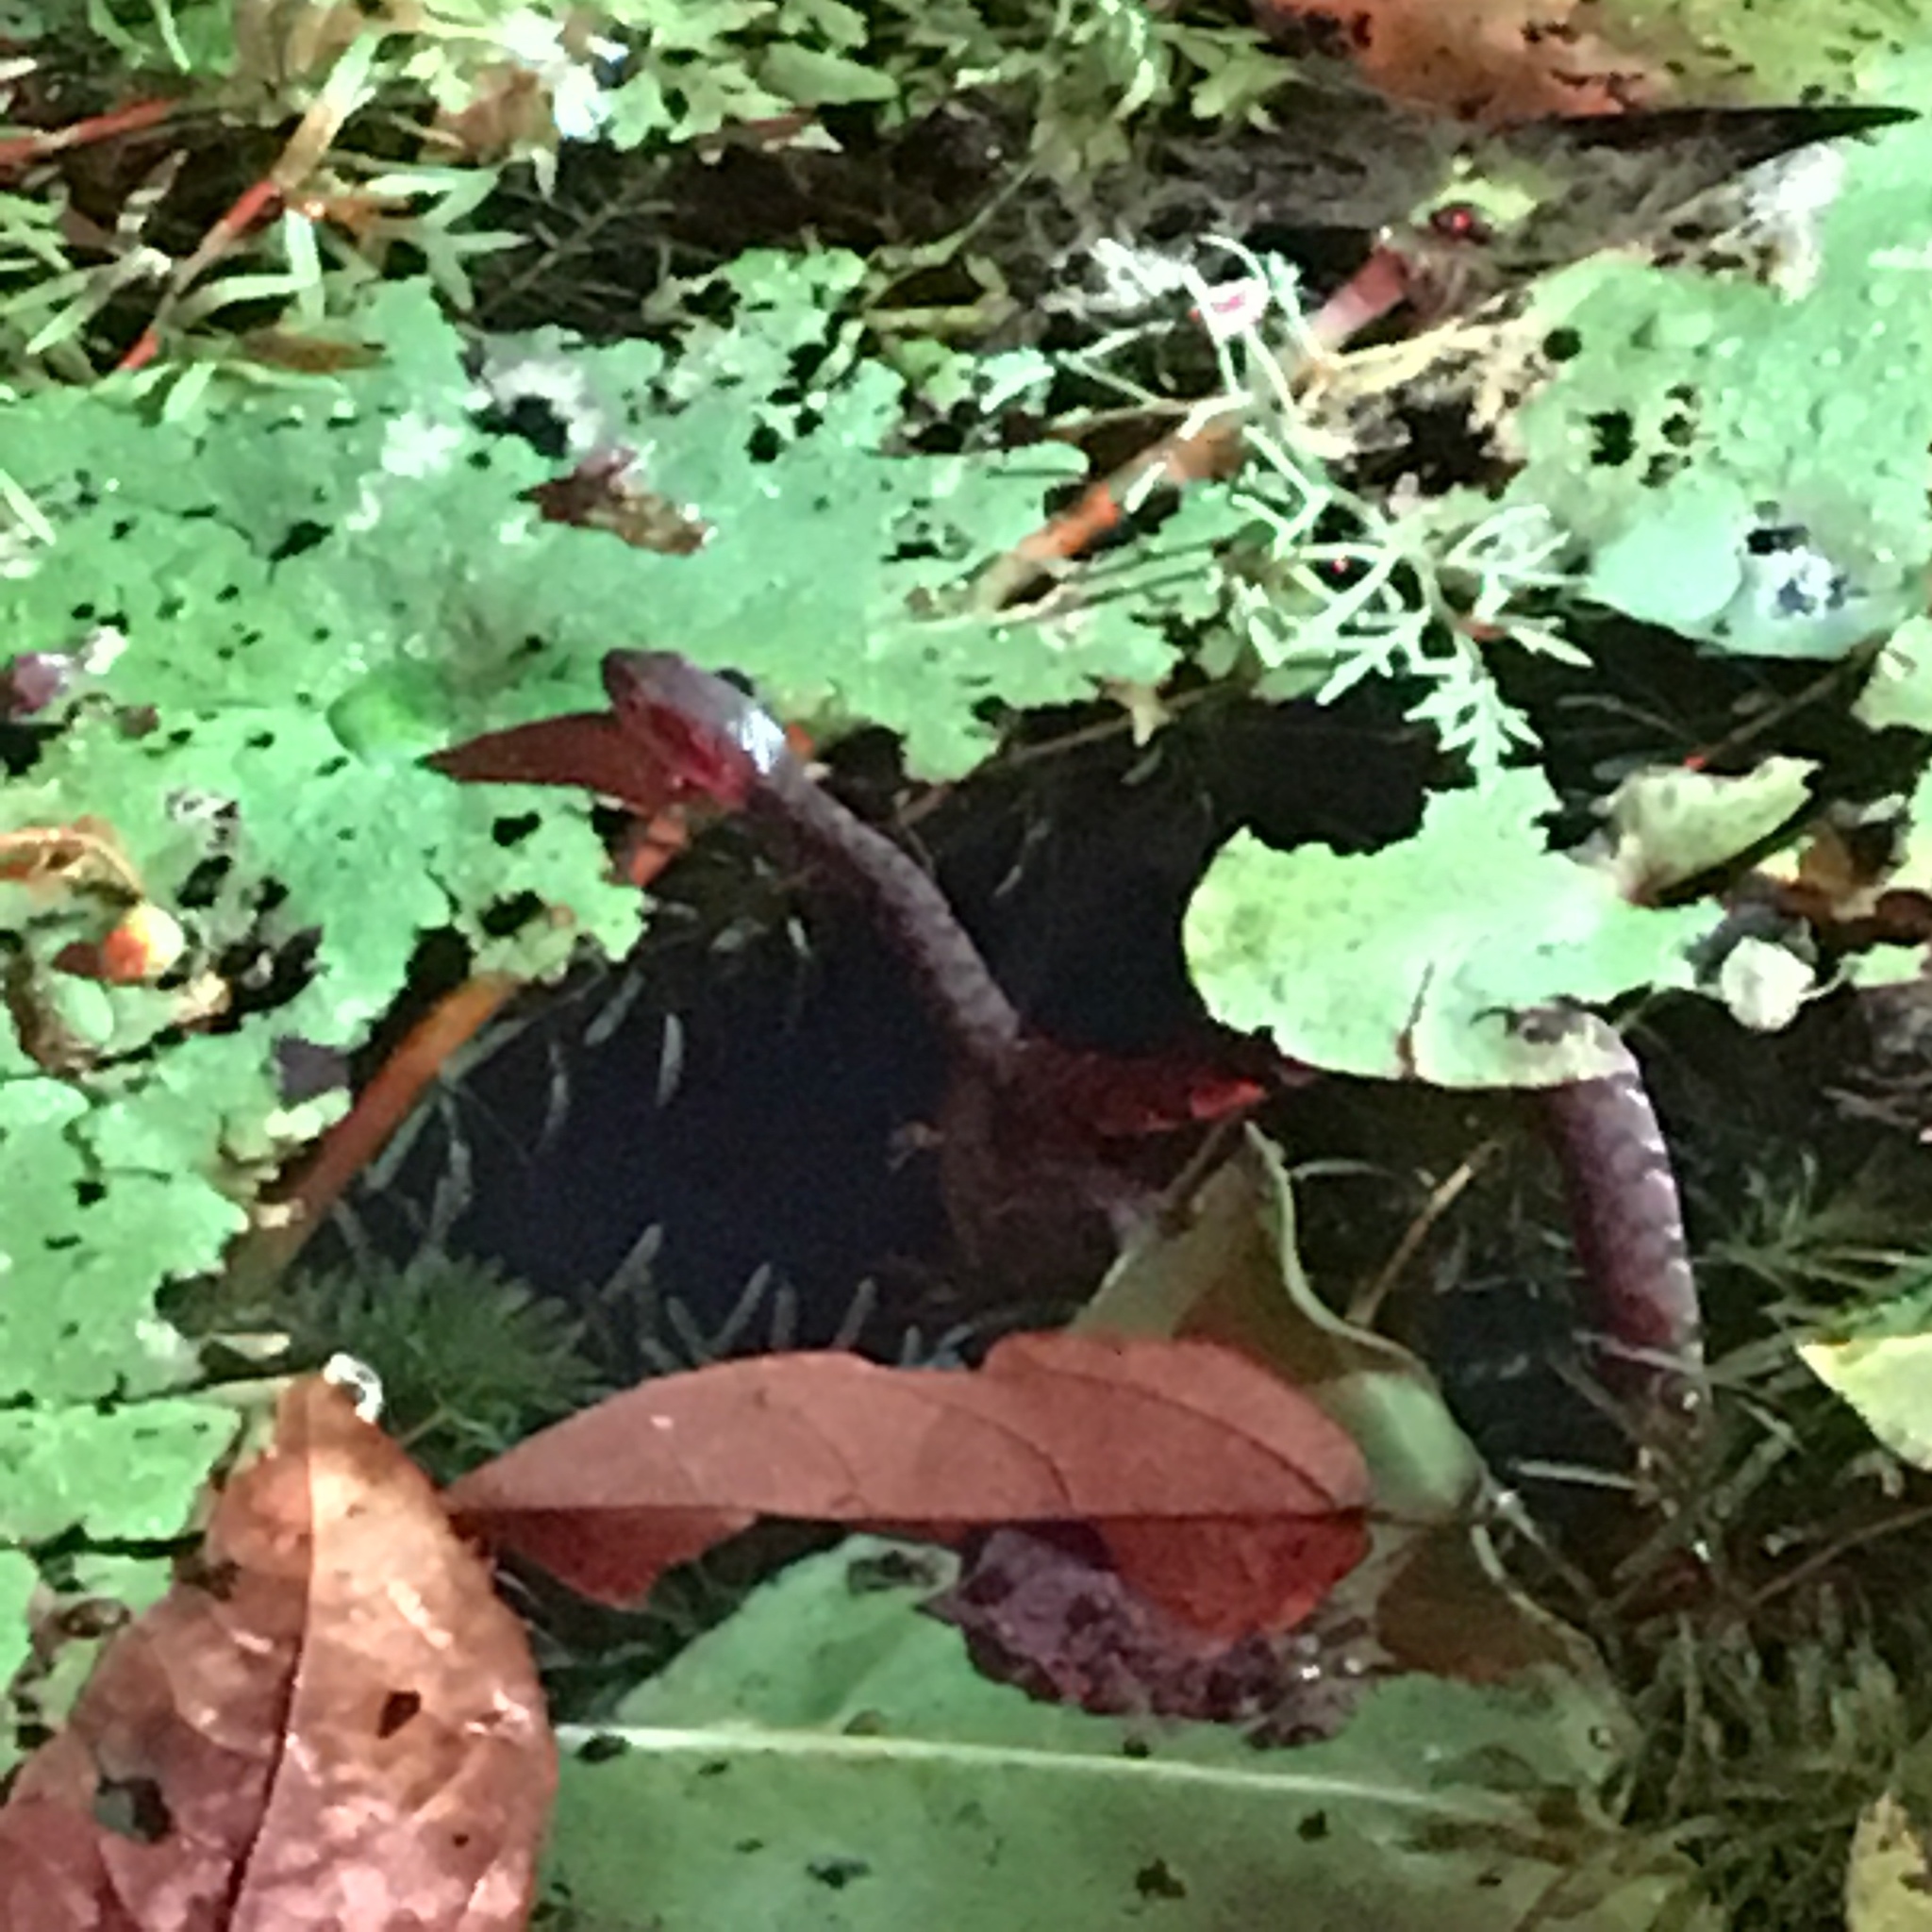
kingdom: Animalia
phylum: Chordata
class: Squamata
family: Colubridae
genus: Trimerodytes
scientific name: Trimerodytes percarinatus
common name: Eastern water snake
